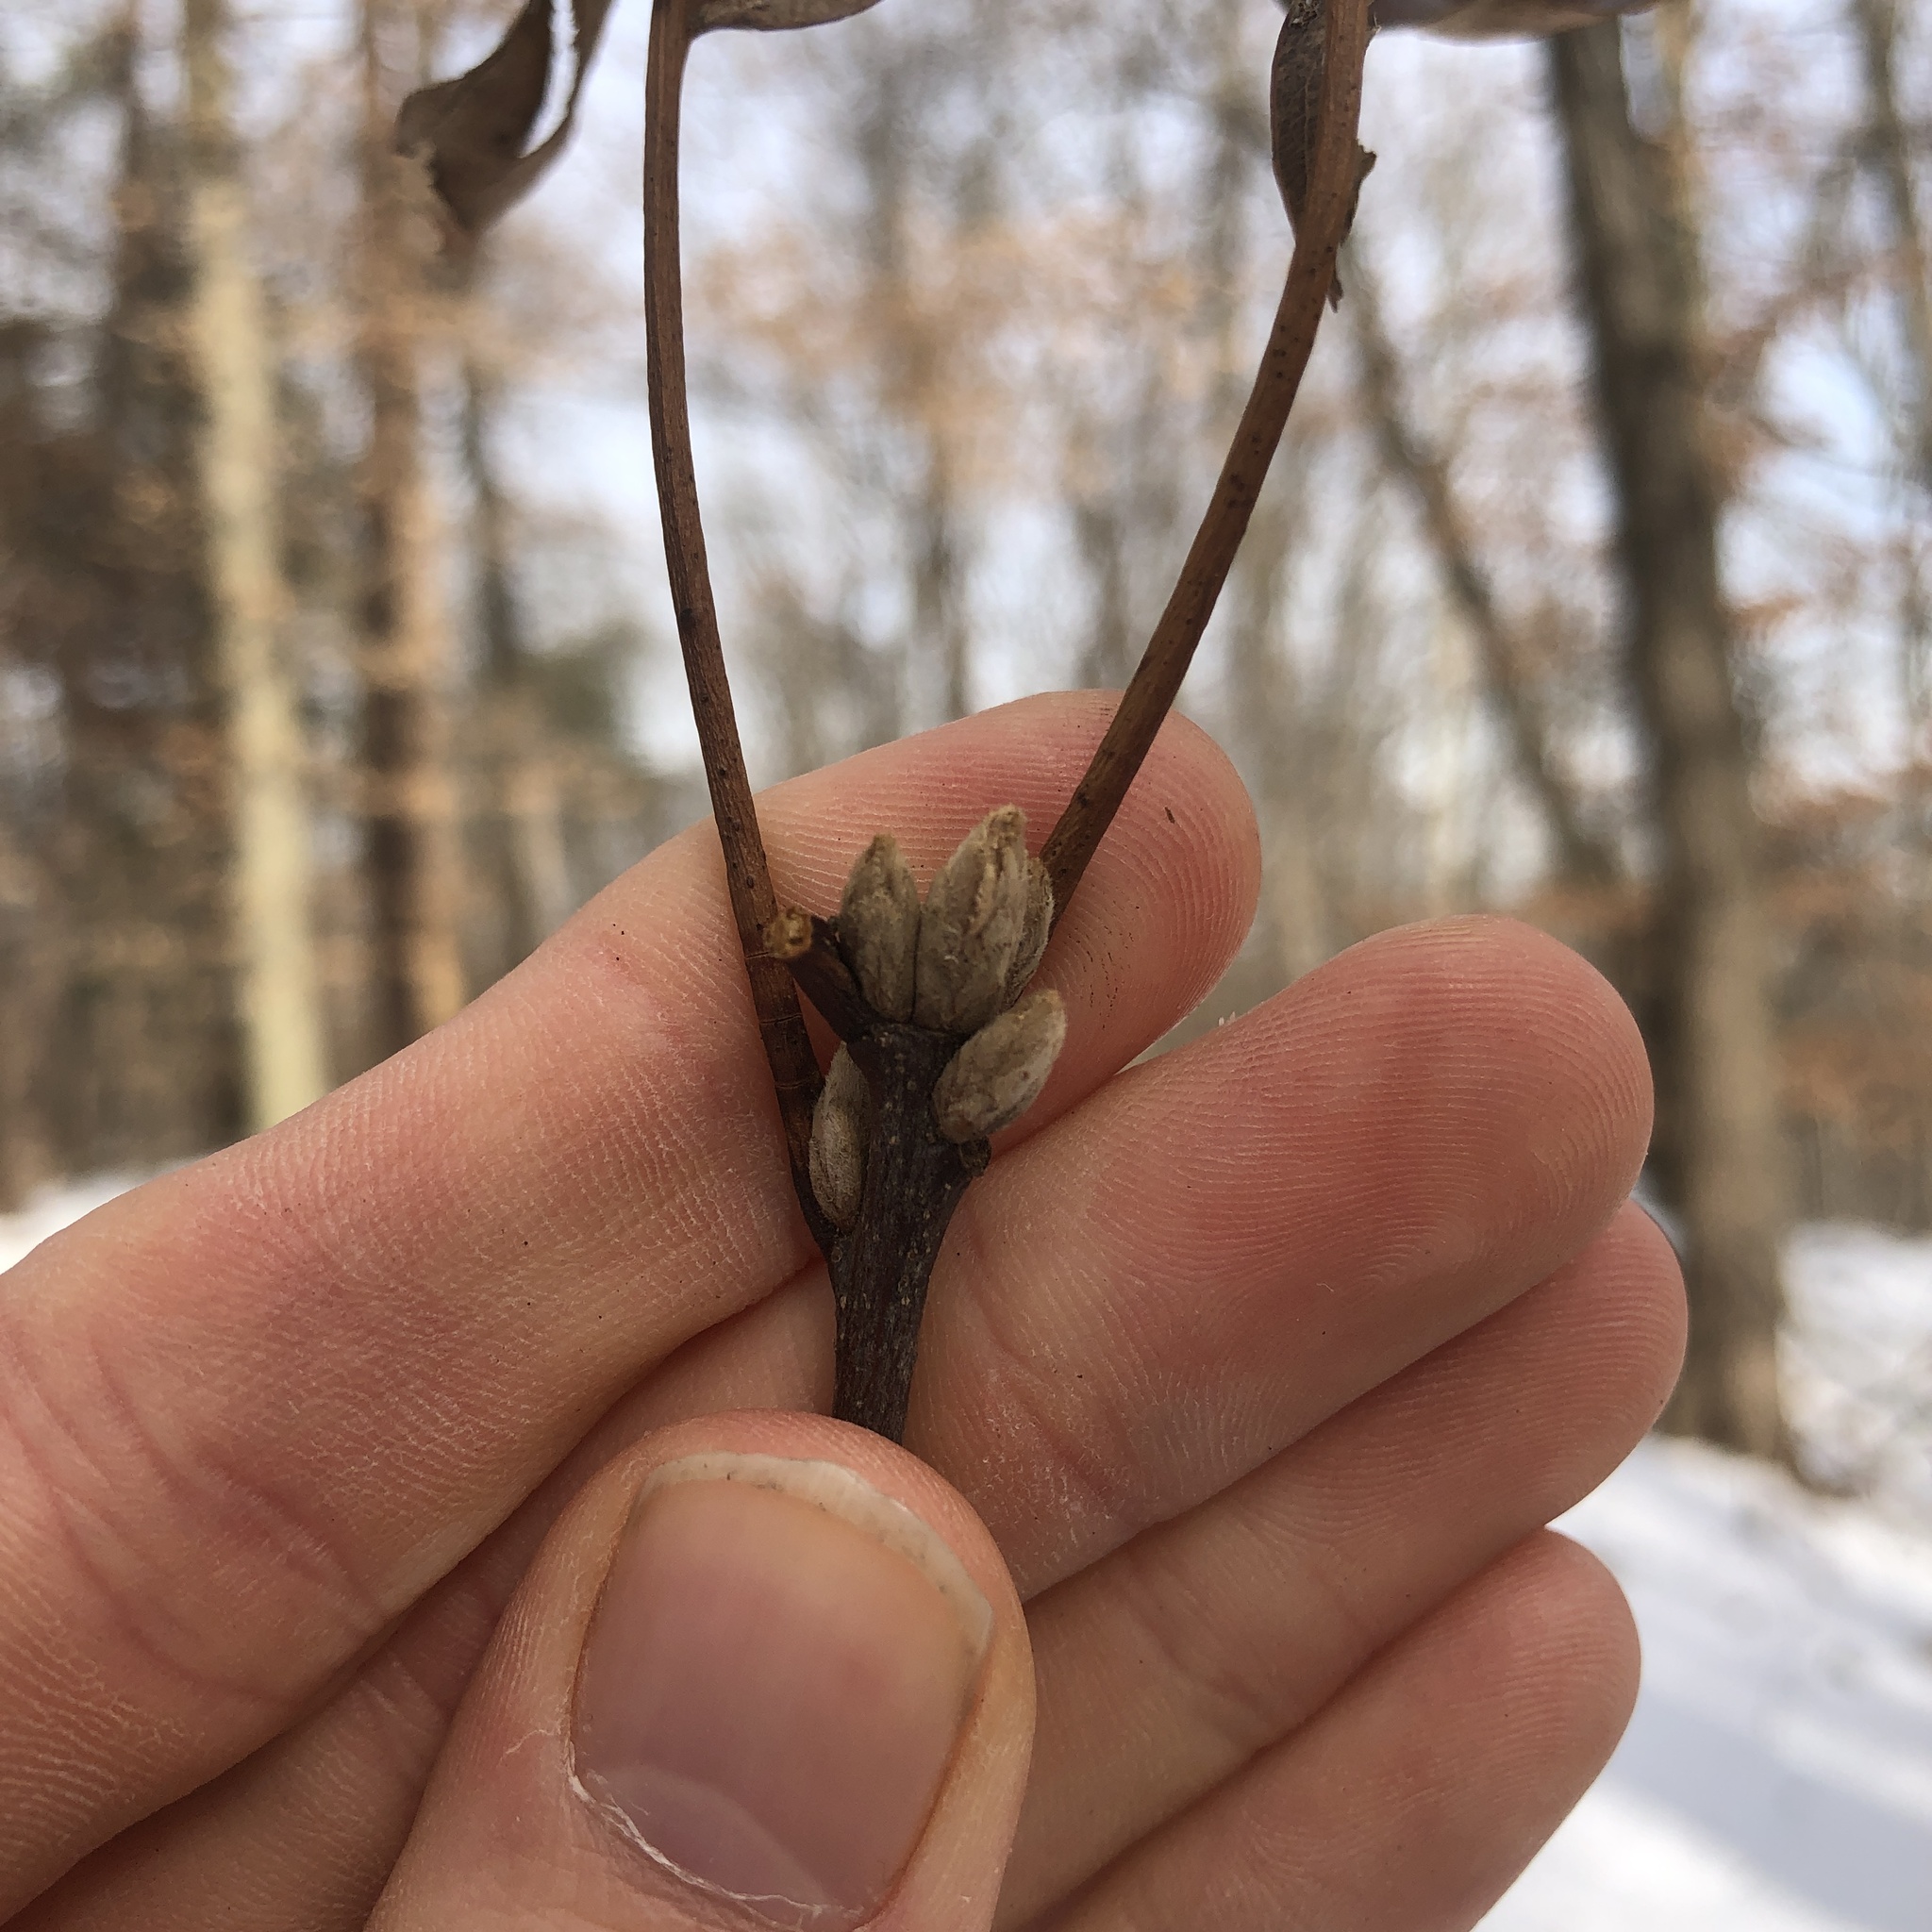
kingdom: Plantae
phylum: Tracheophyta
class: Magnoliopsida
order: Fagales
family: Fagaceae
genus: Quercus
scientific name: Quercus velutina
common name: Black oak
